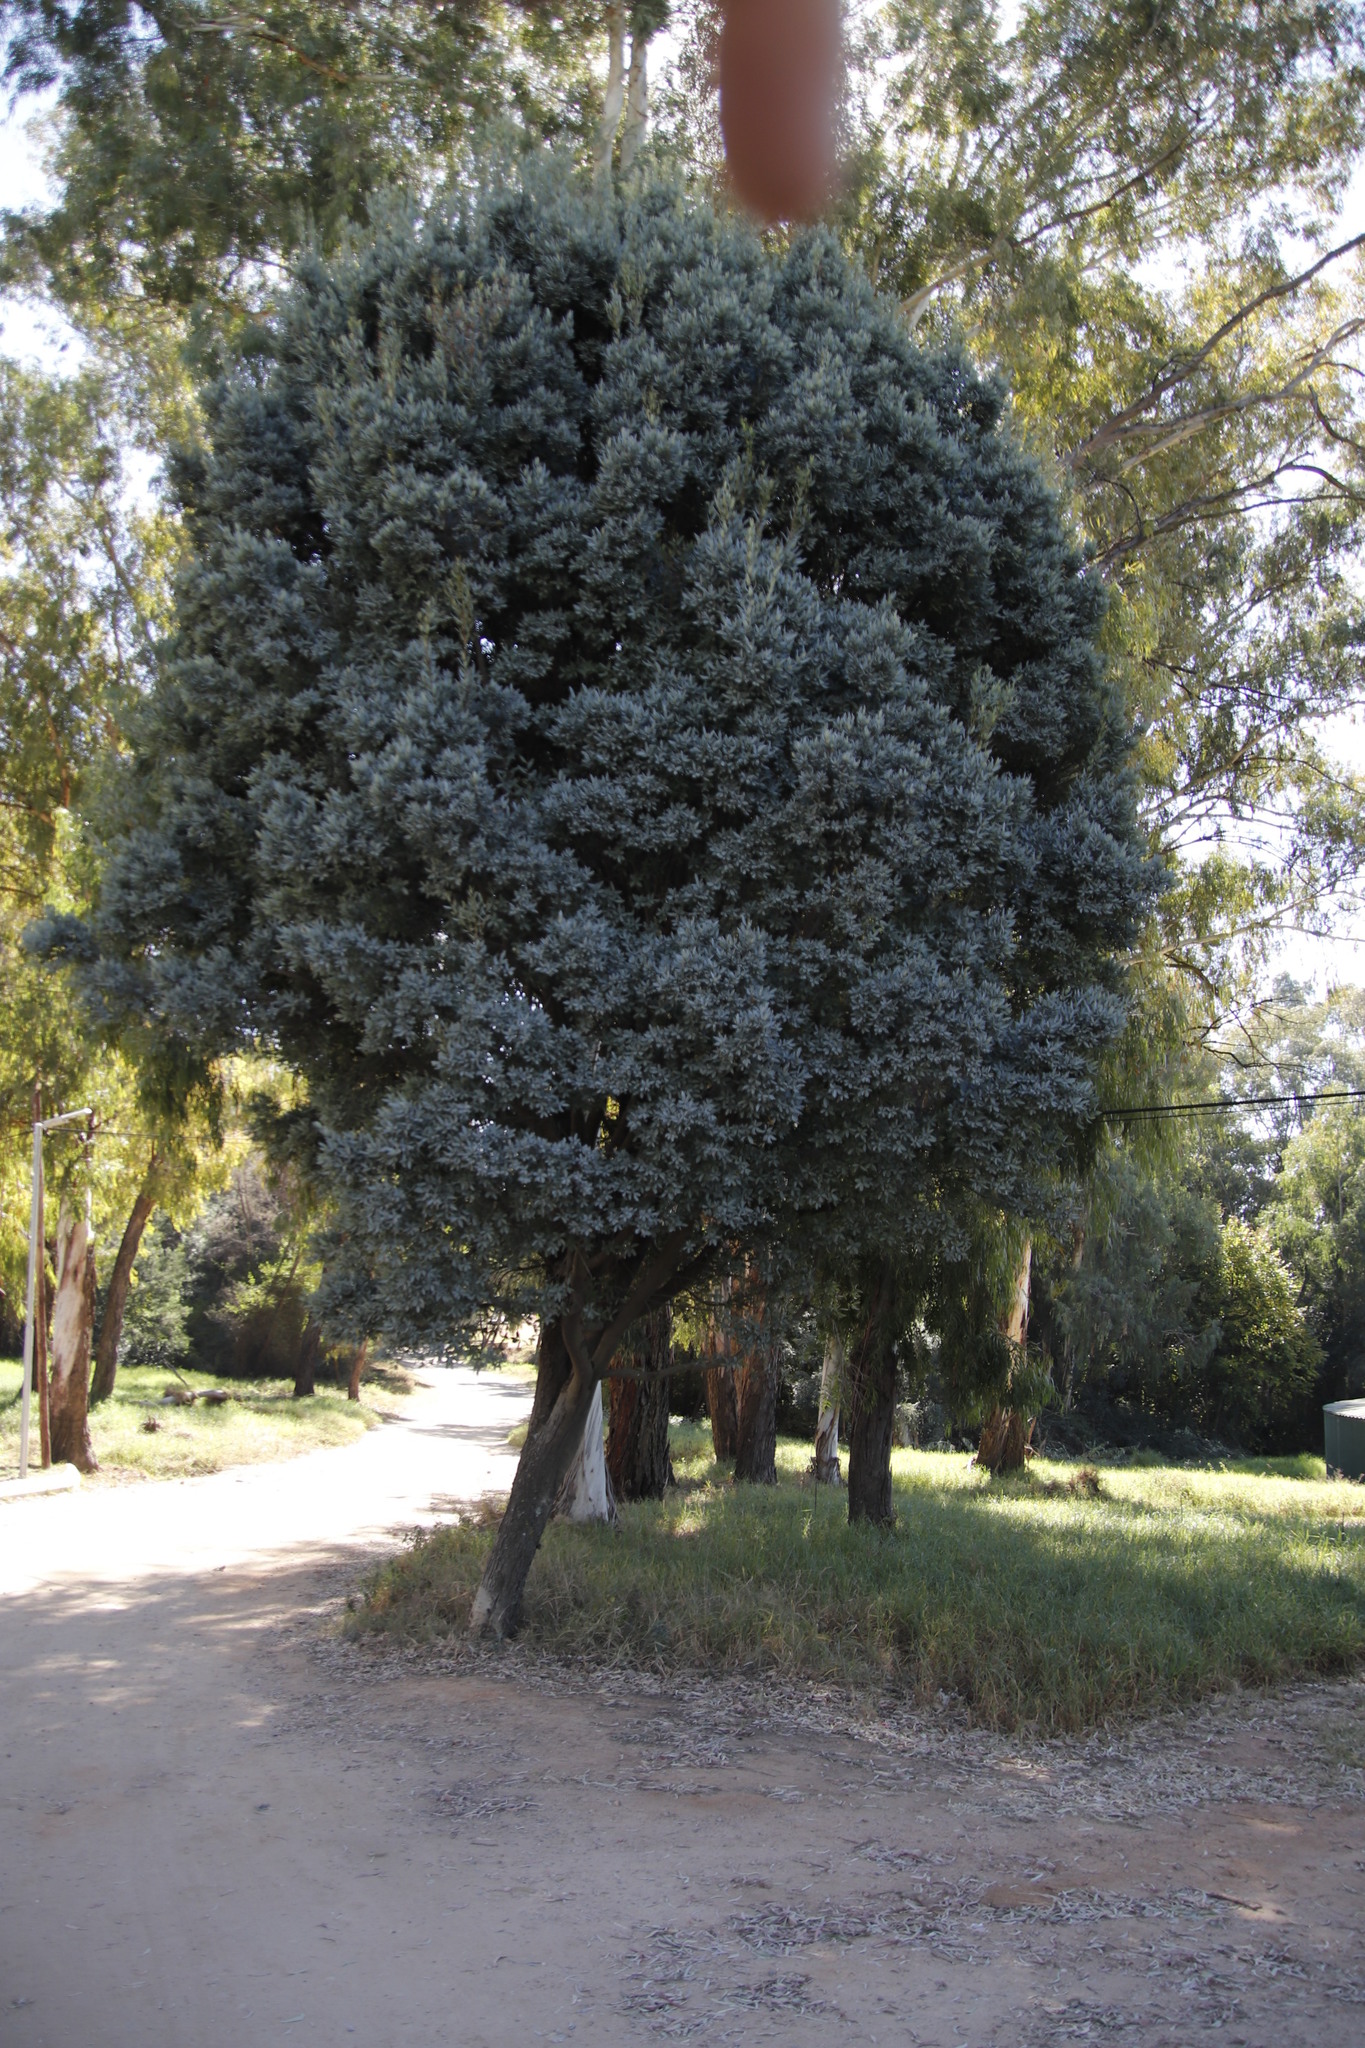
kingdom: Plantae
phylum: Tracheophyta
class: Magnoliopsida
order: Ericales
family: Ebenaceae
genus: Euclea
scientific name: Euclea crispa
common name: Blue guarri
